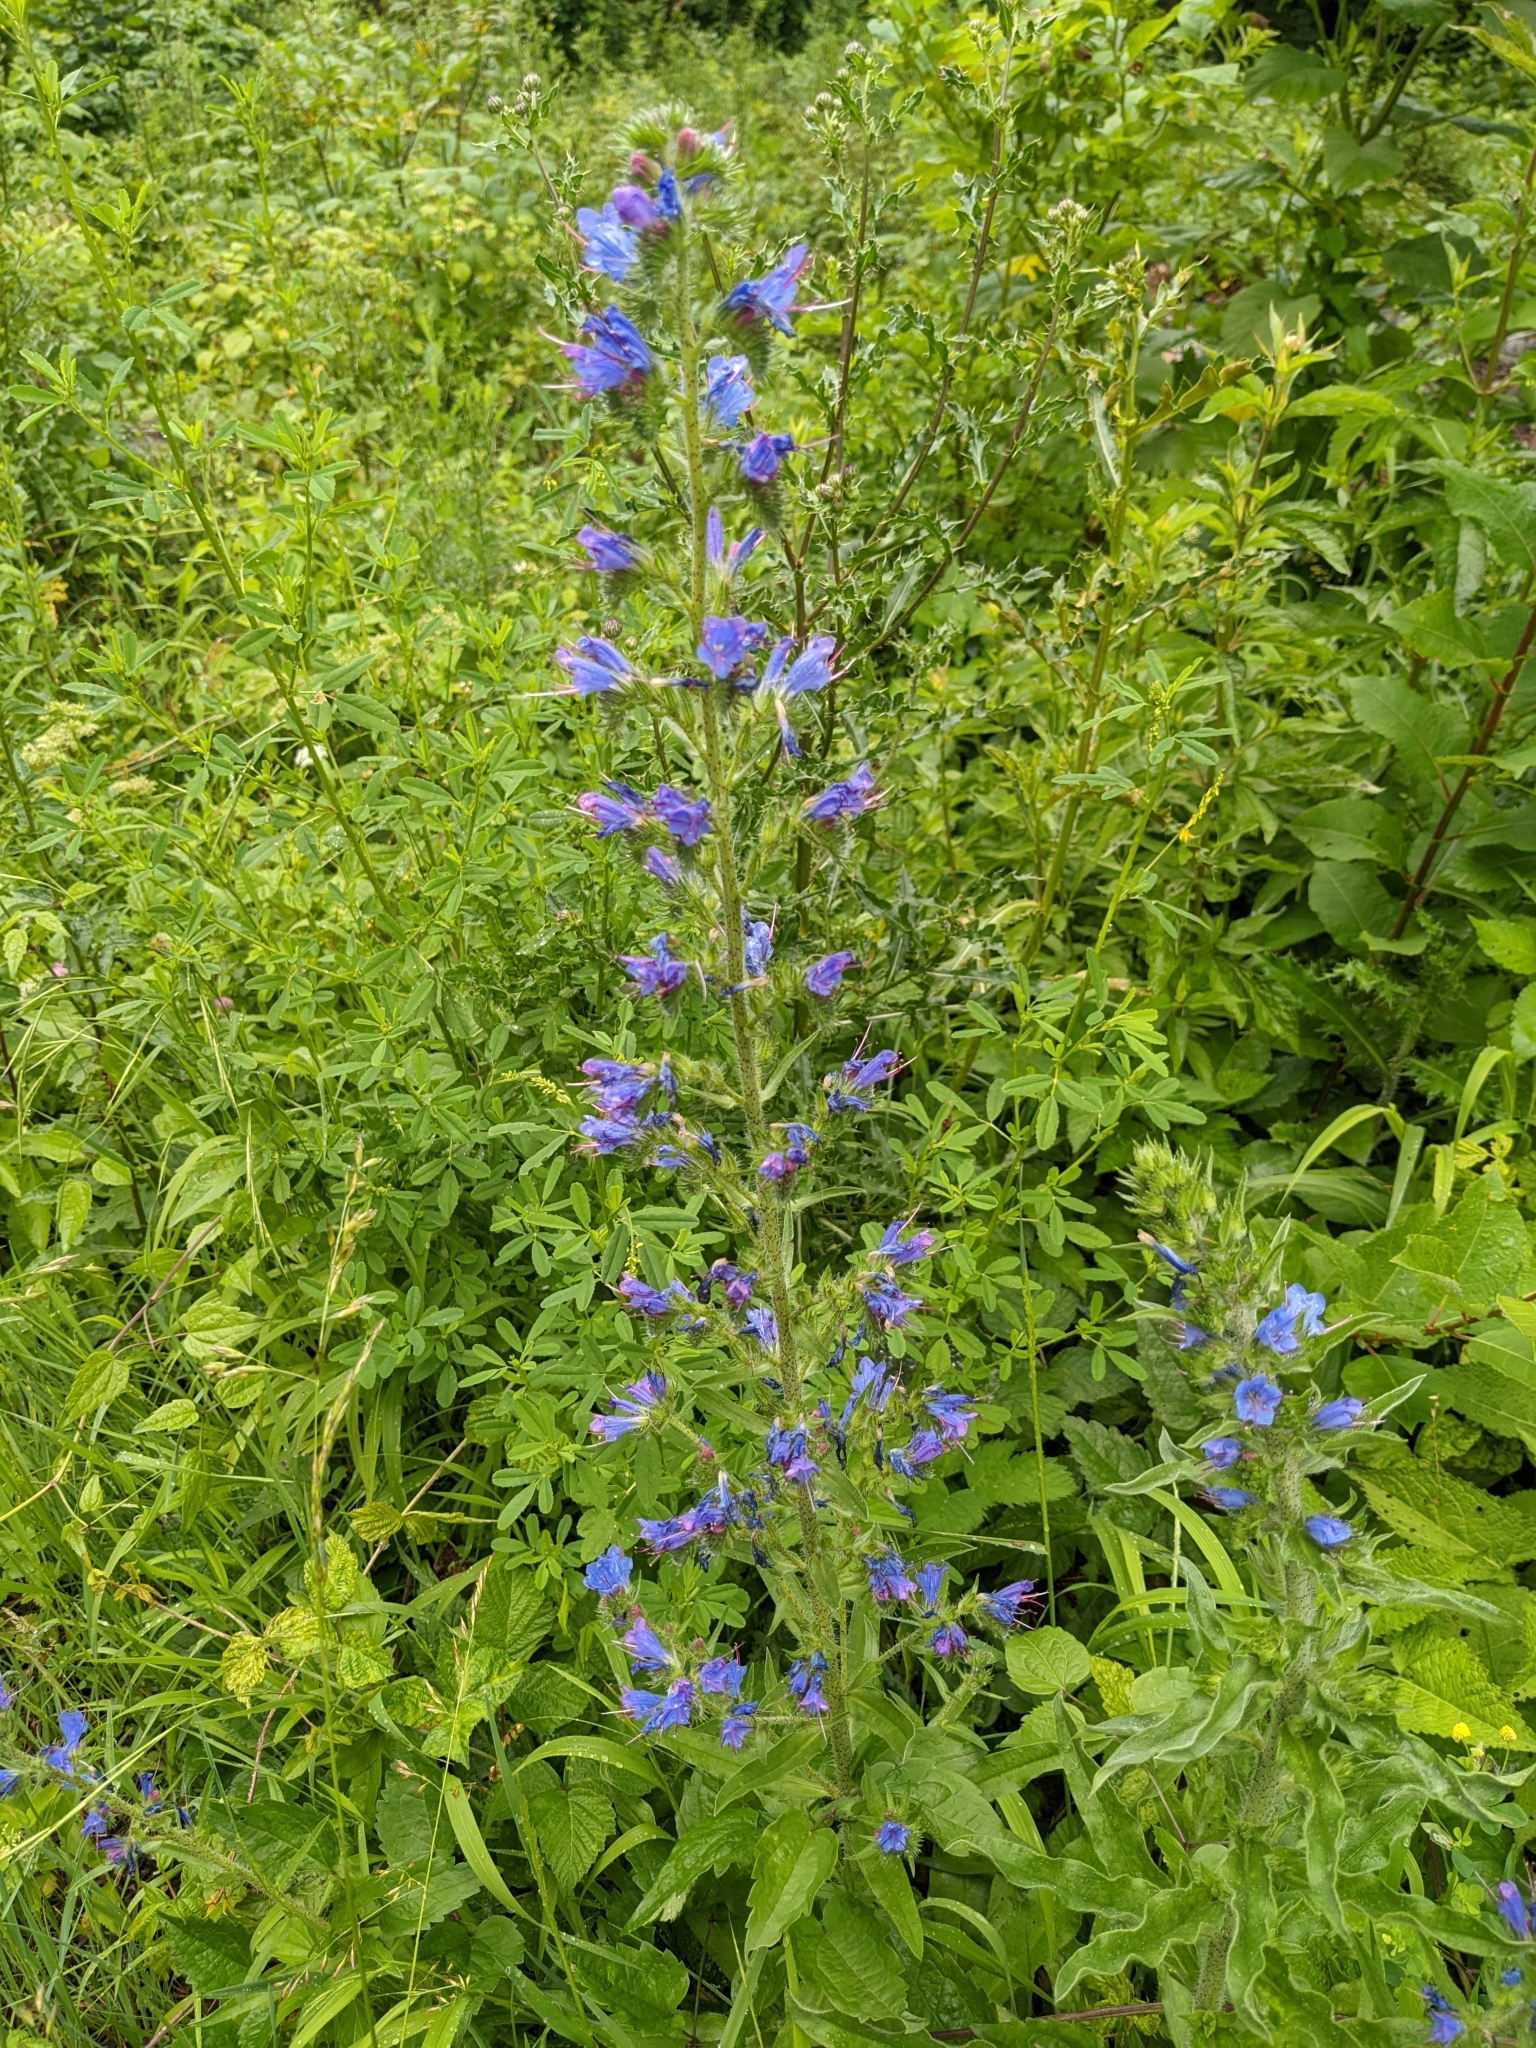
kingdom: Plantae
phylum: Tracheophyta
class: Magnoliopsida
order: Boraginales
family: Boraginaceae
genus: Echium
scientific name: Echium vulgare
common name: Common viper's bugloss
